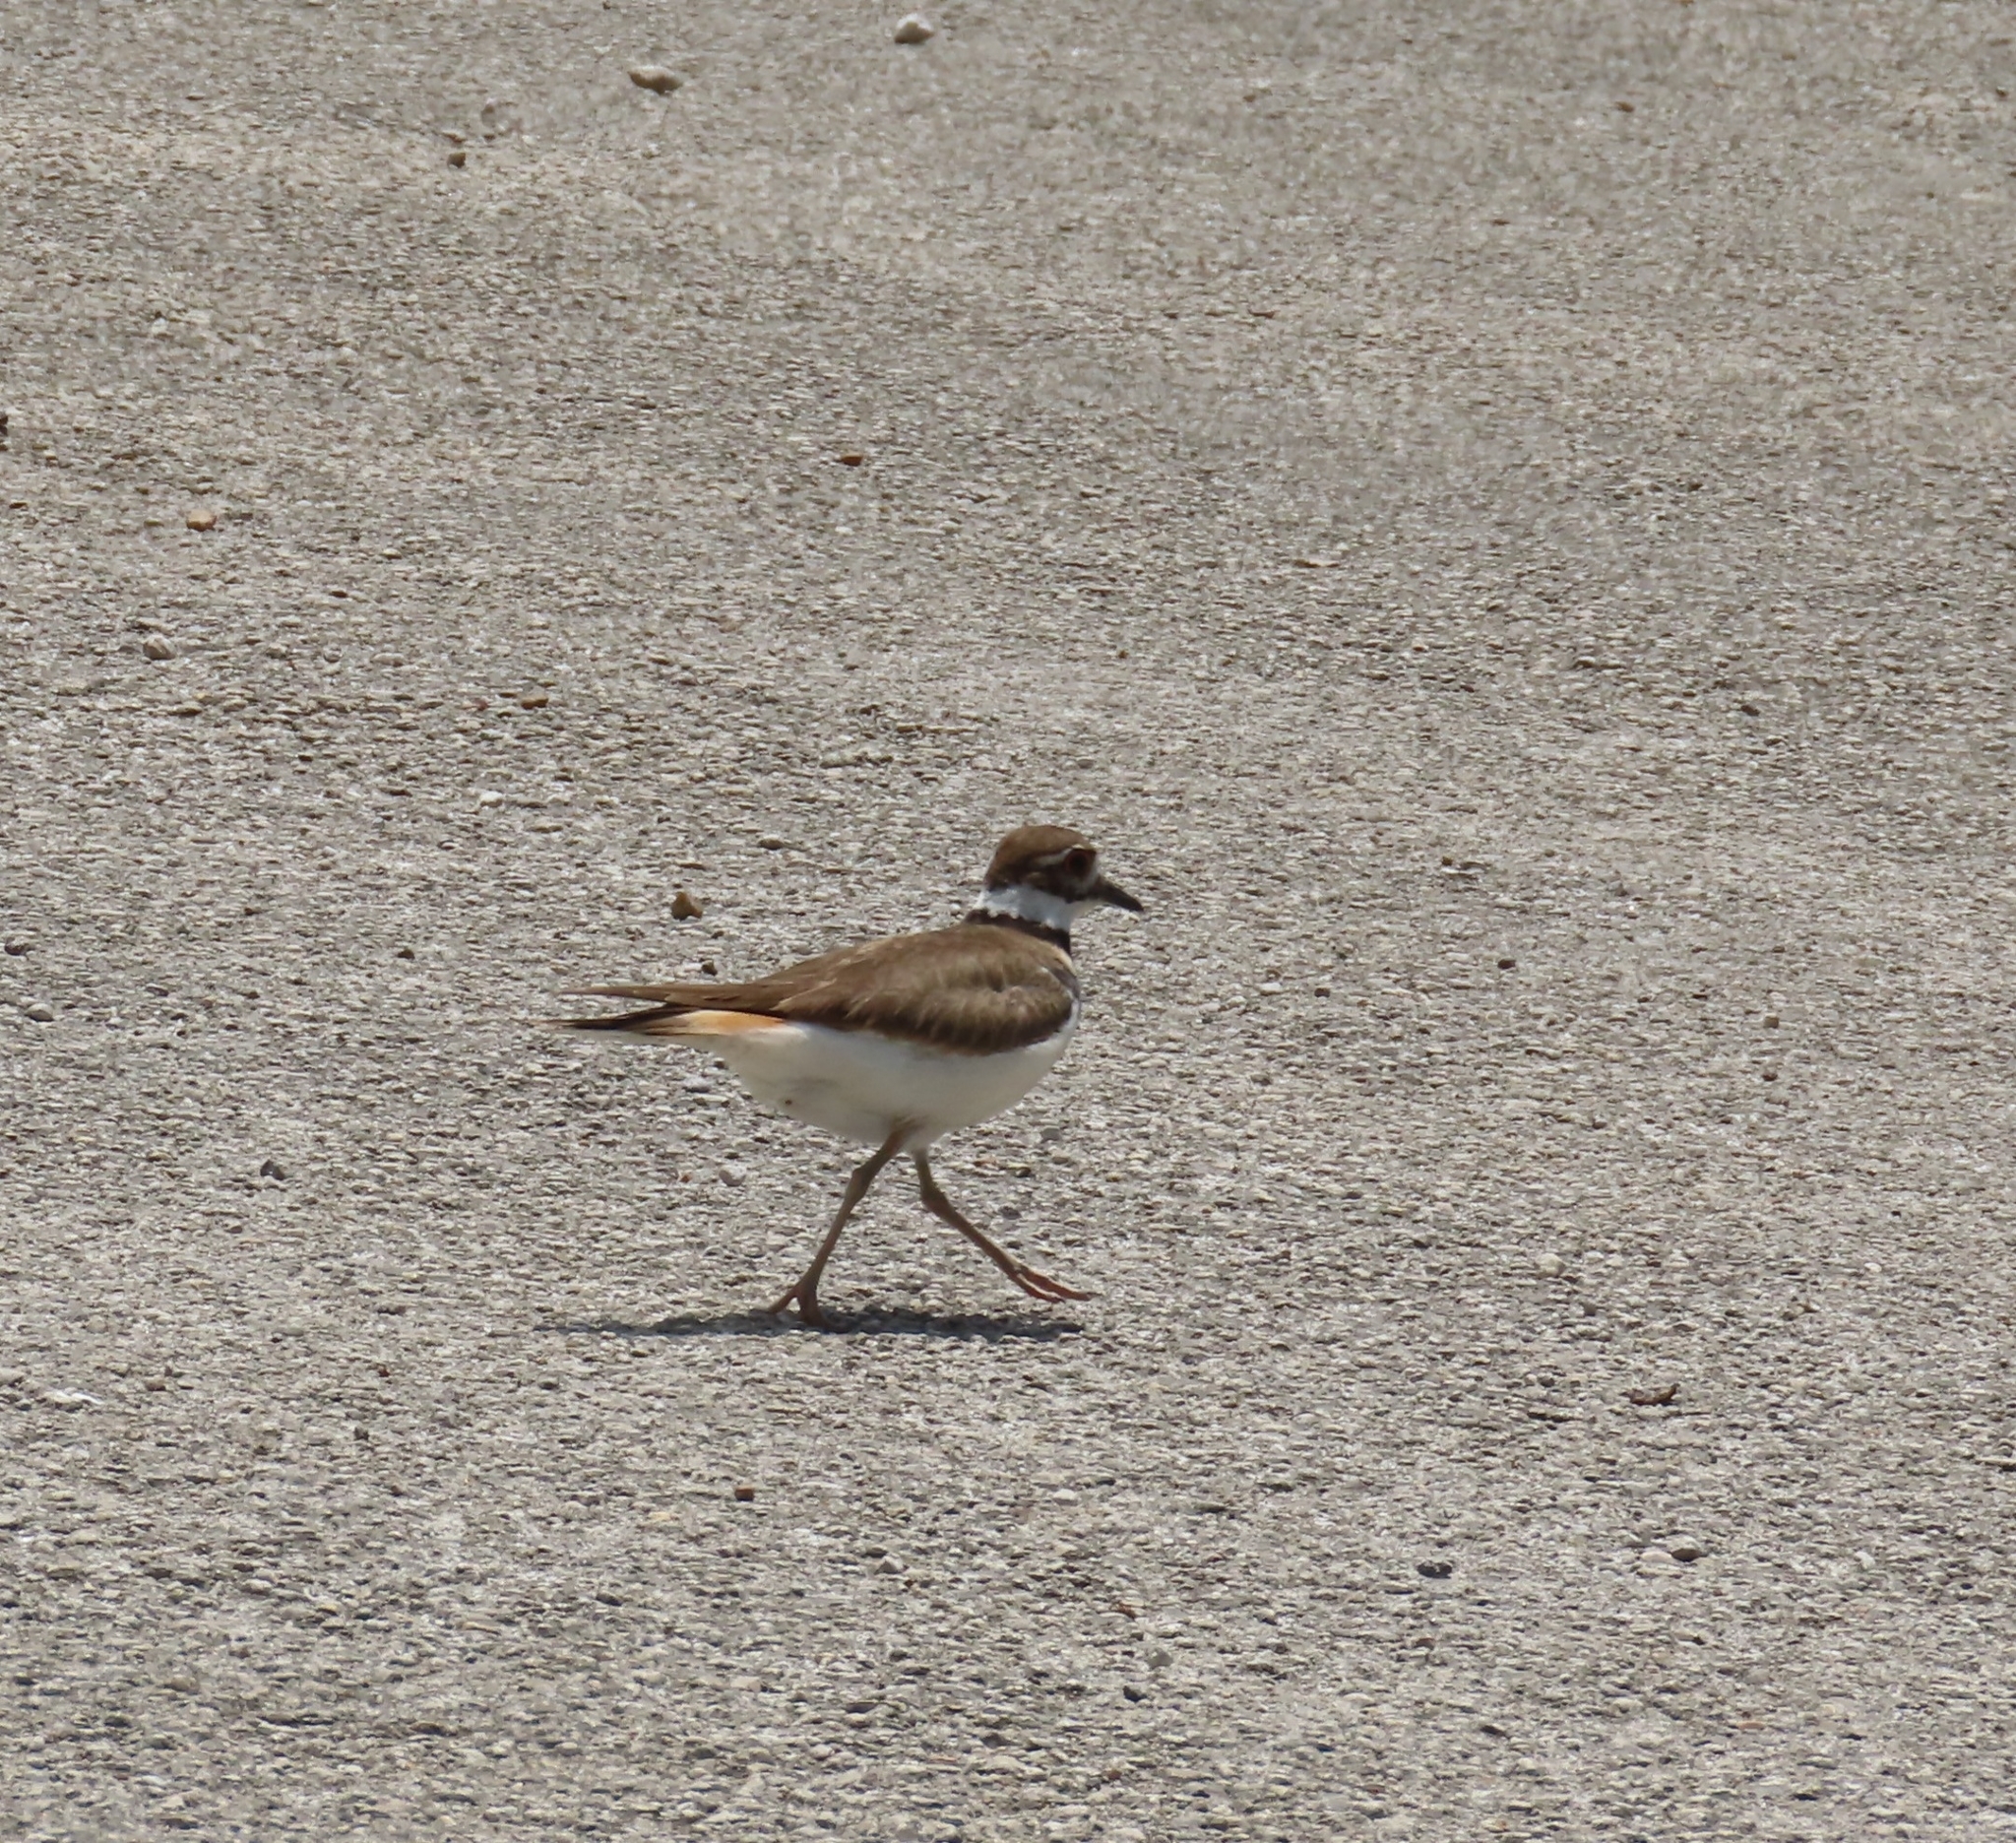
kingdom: Animalia
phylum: Chordata
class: Aves
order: Charadriiformes
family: Charadriidae
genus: Charadrius
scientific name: Charadrius vociferus
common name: Killdeer
